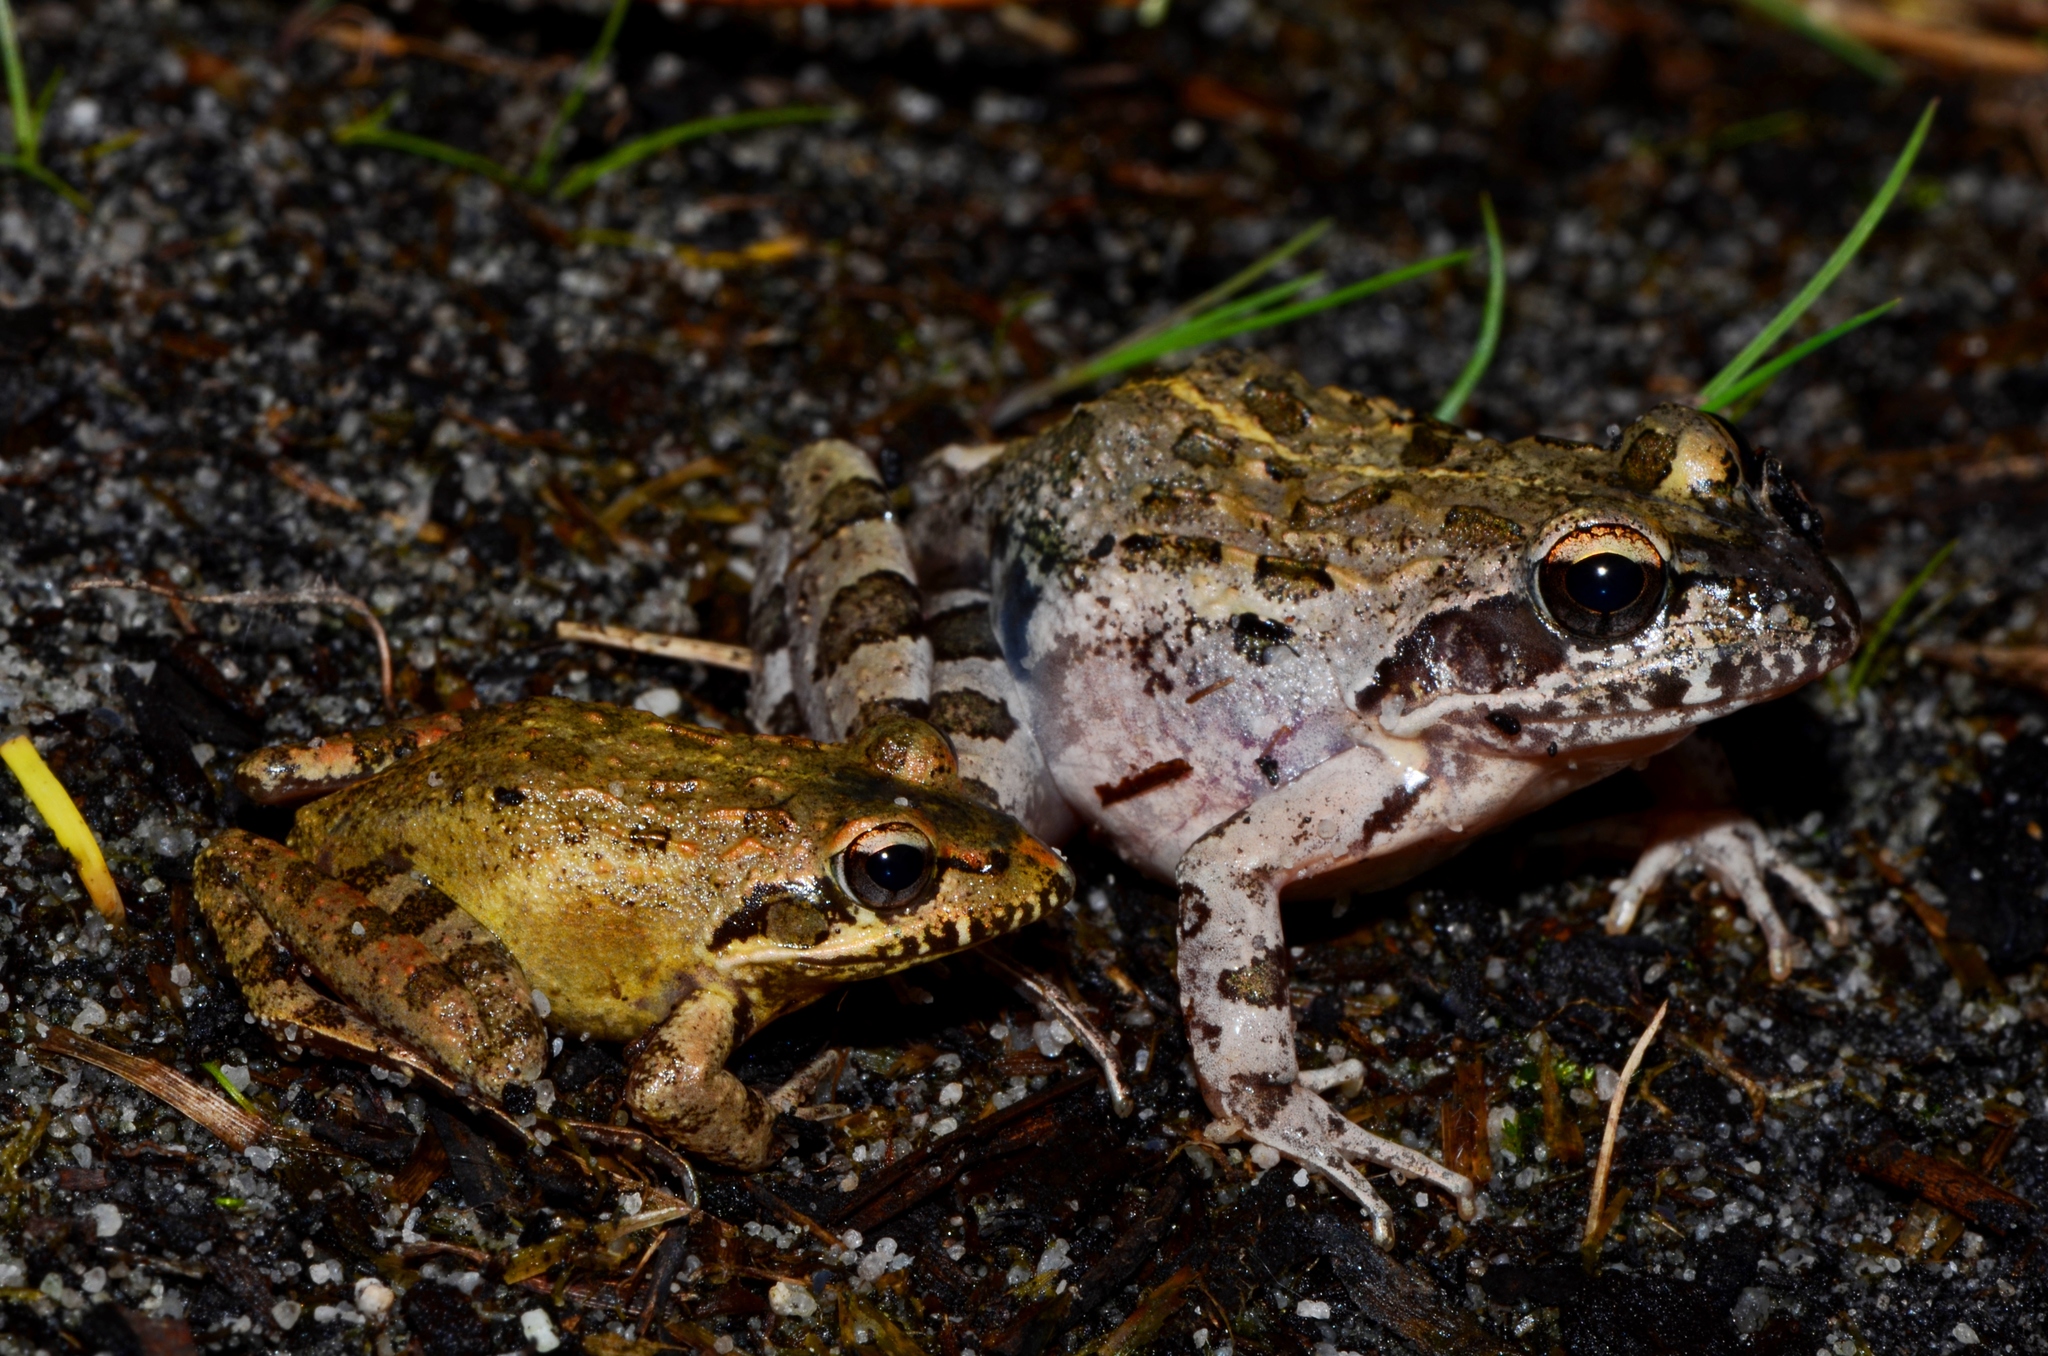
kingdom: Animalia
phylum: Chordata
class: Amphibia
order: Anura
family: Pyxicephalidae
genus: Strongylopus
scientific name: Strongylopus grayii
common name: Gray's stream frog
